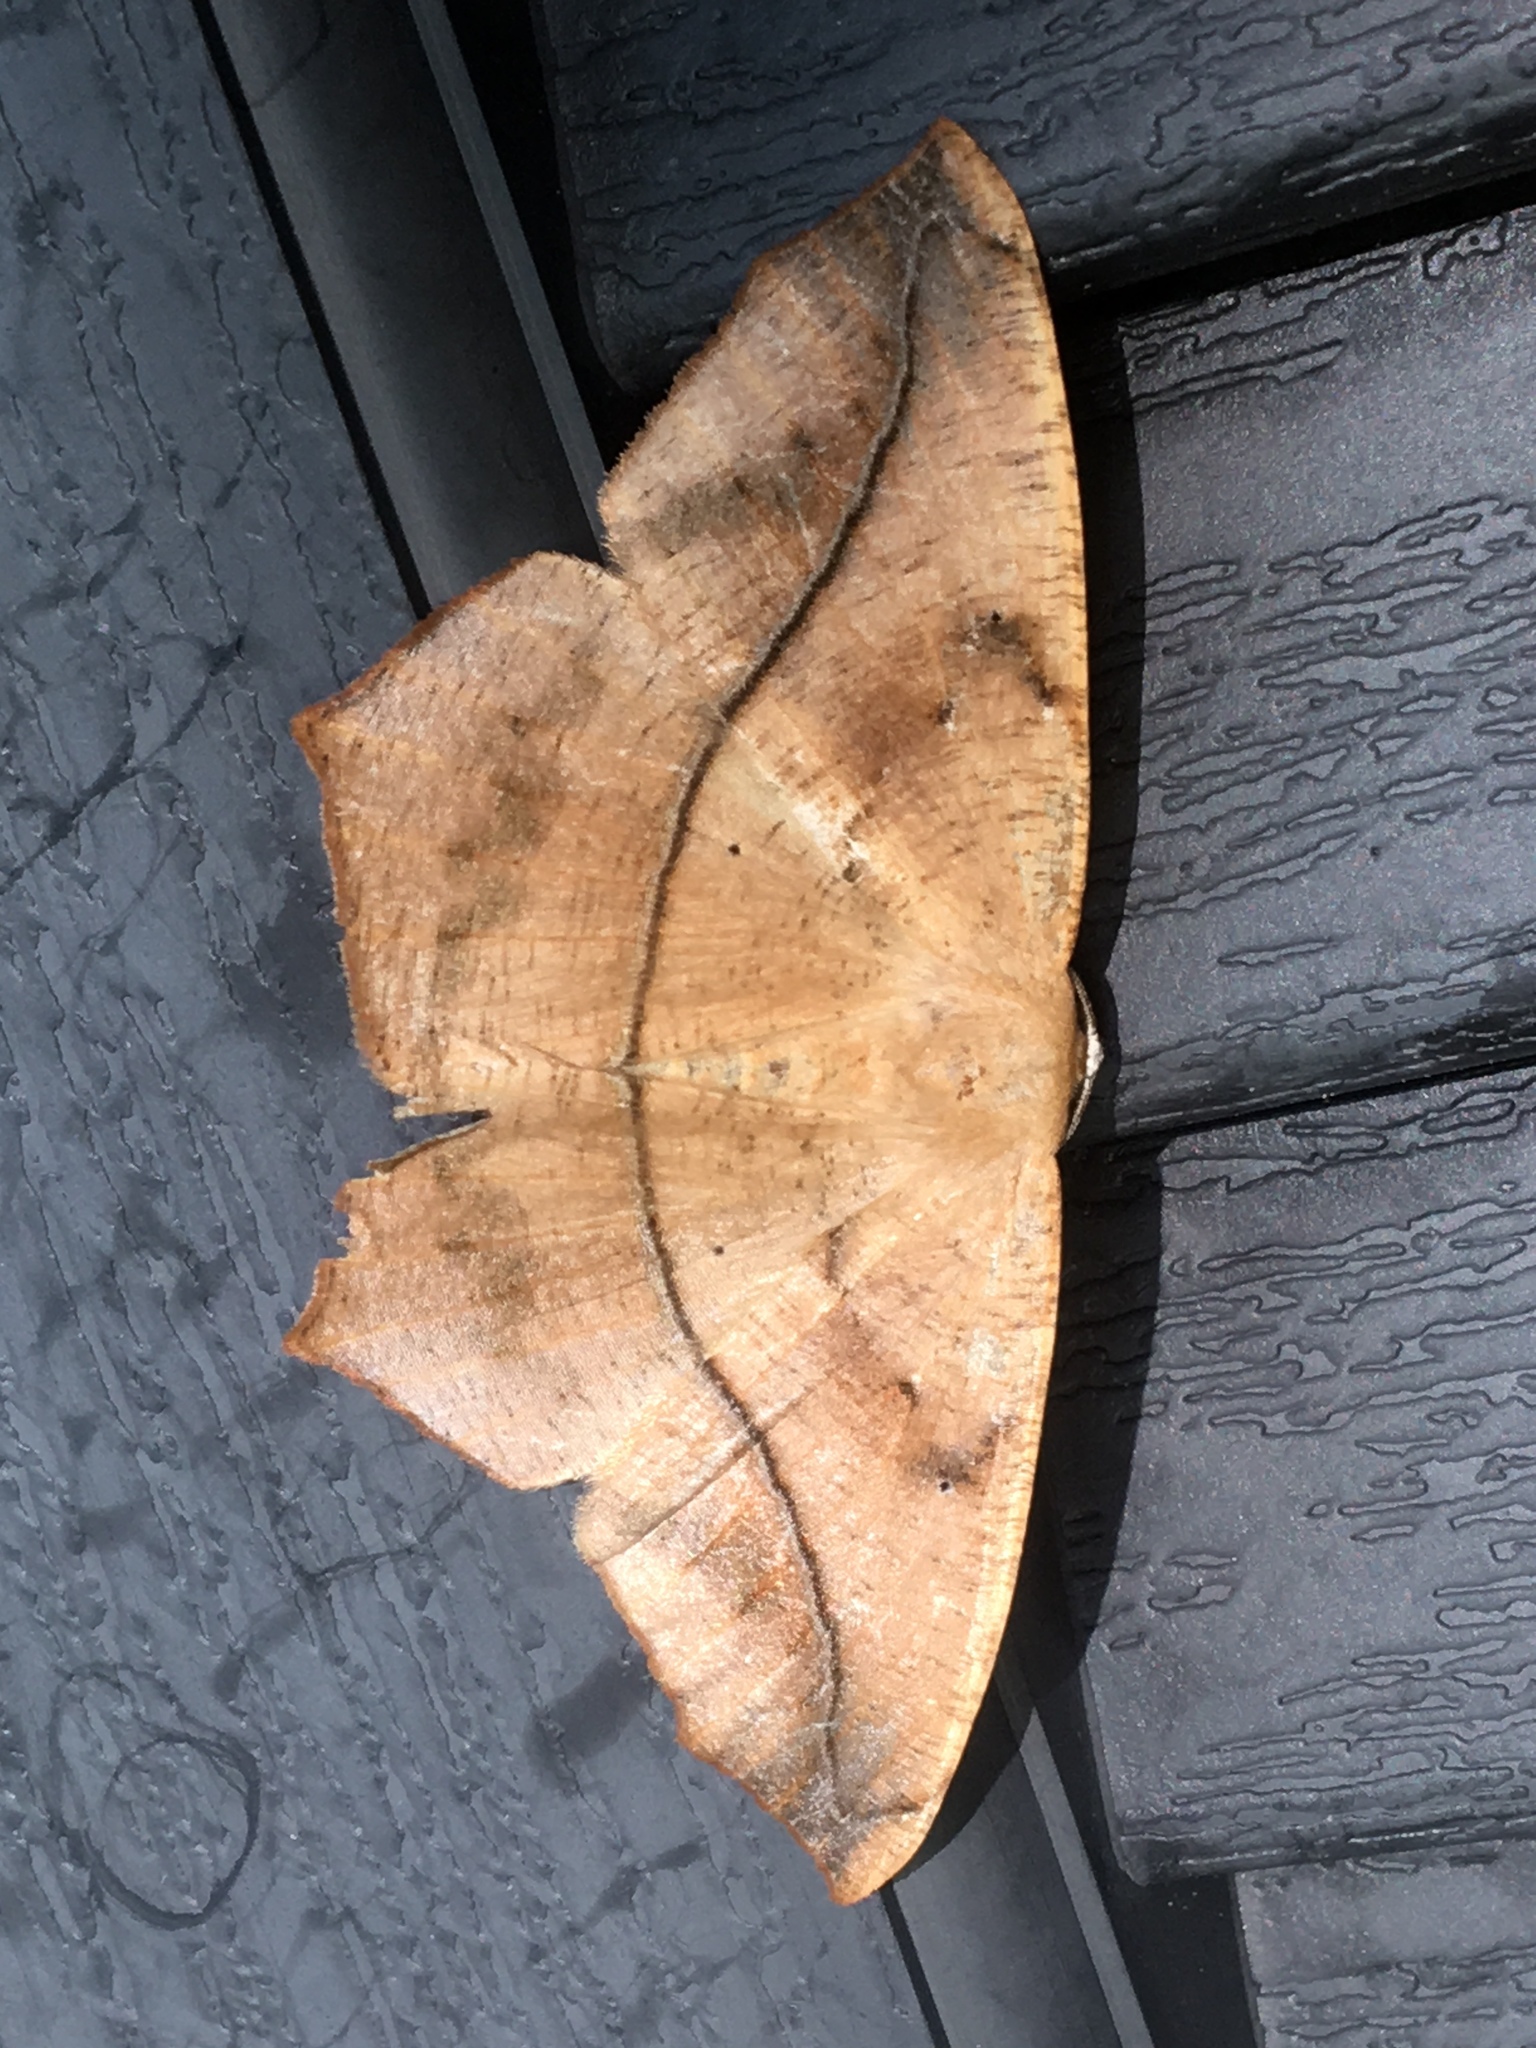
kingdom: Animalia
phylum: Arthropoda
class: Insecta
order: Lepidoptera
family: Geometridae
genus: Prochoerodes
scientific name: Prochoerodes lineola
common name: Large maple spanworm
